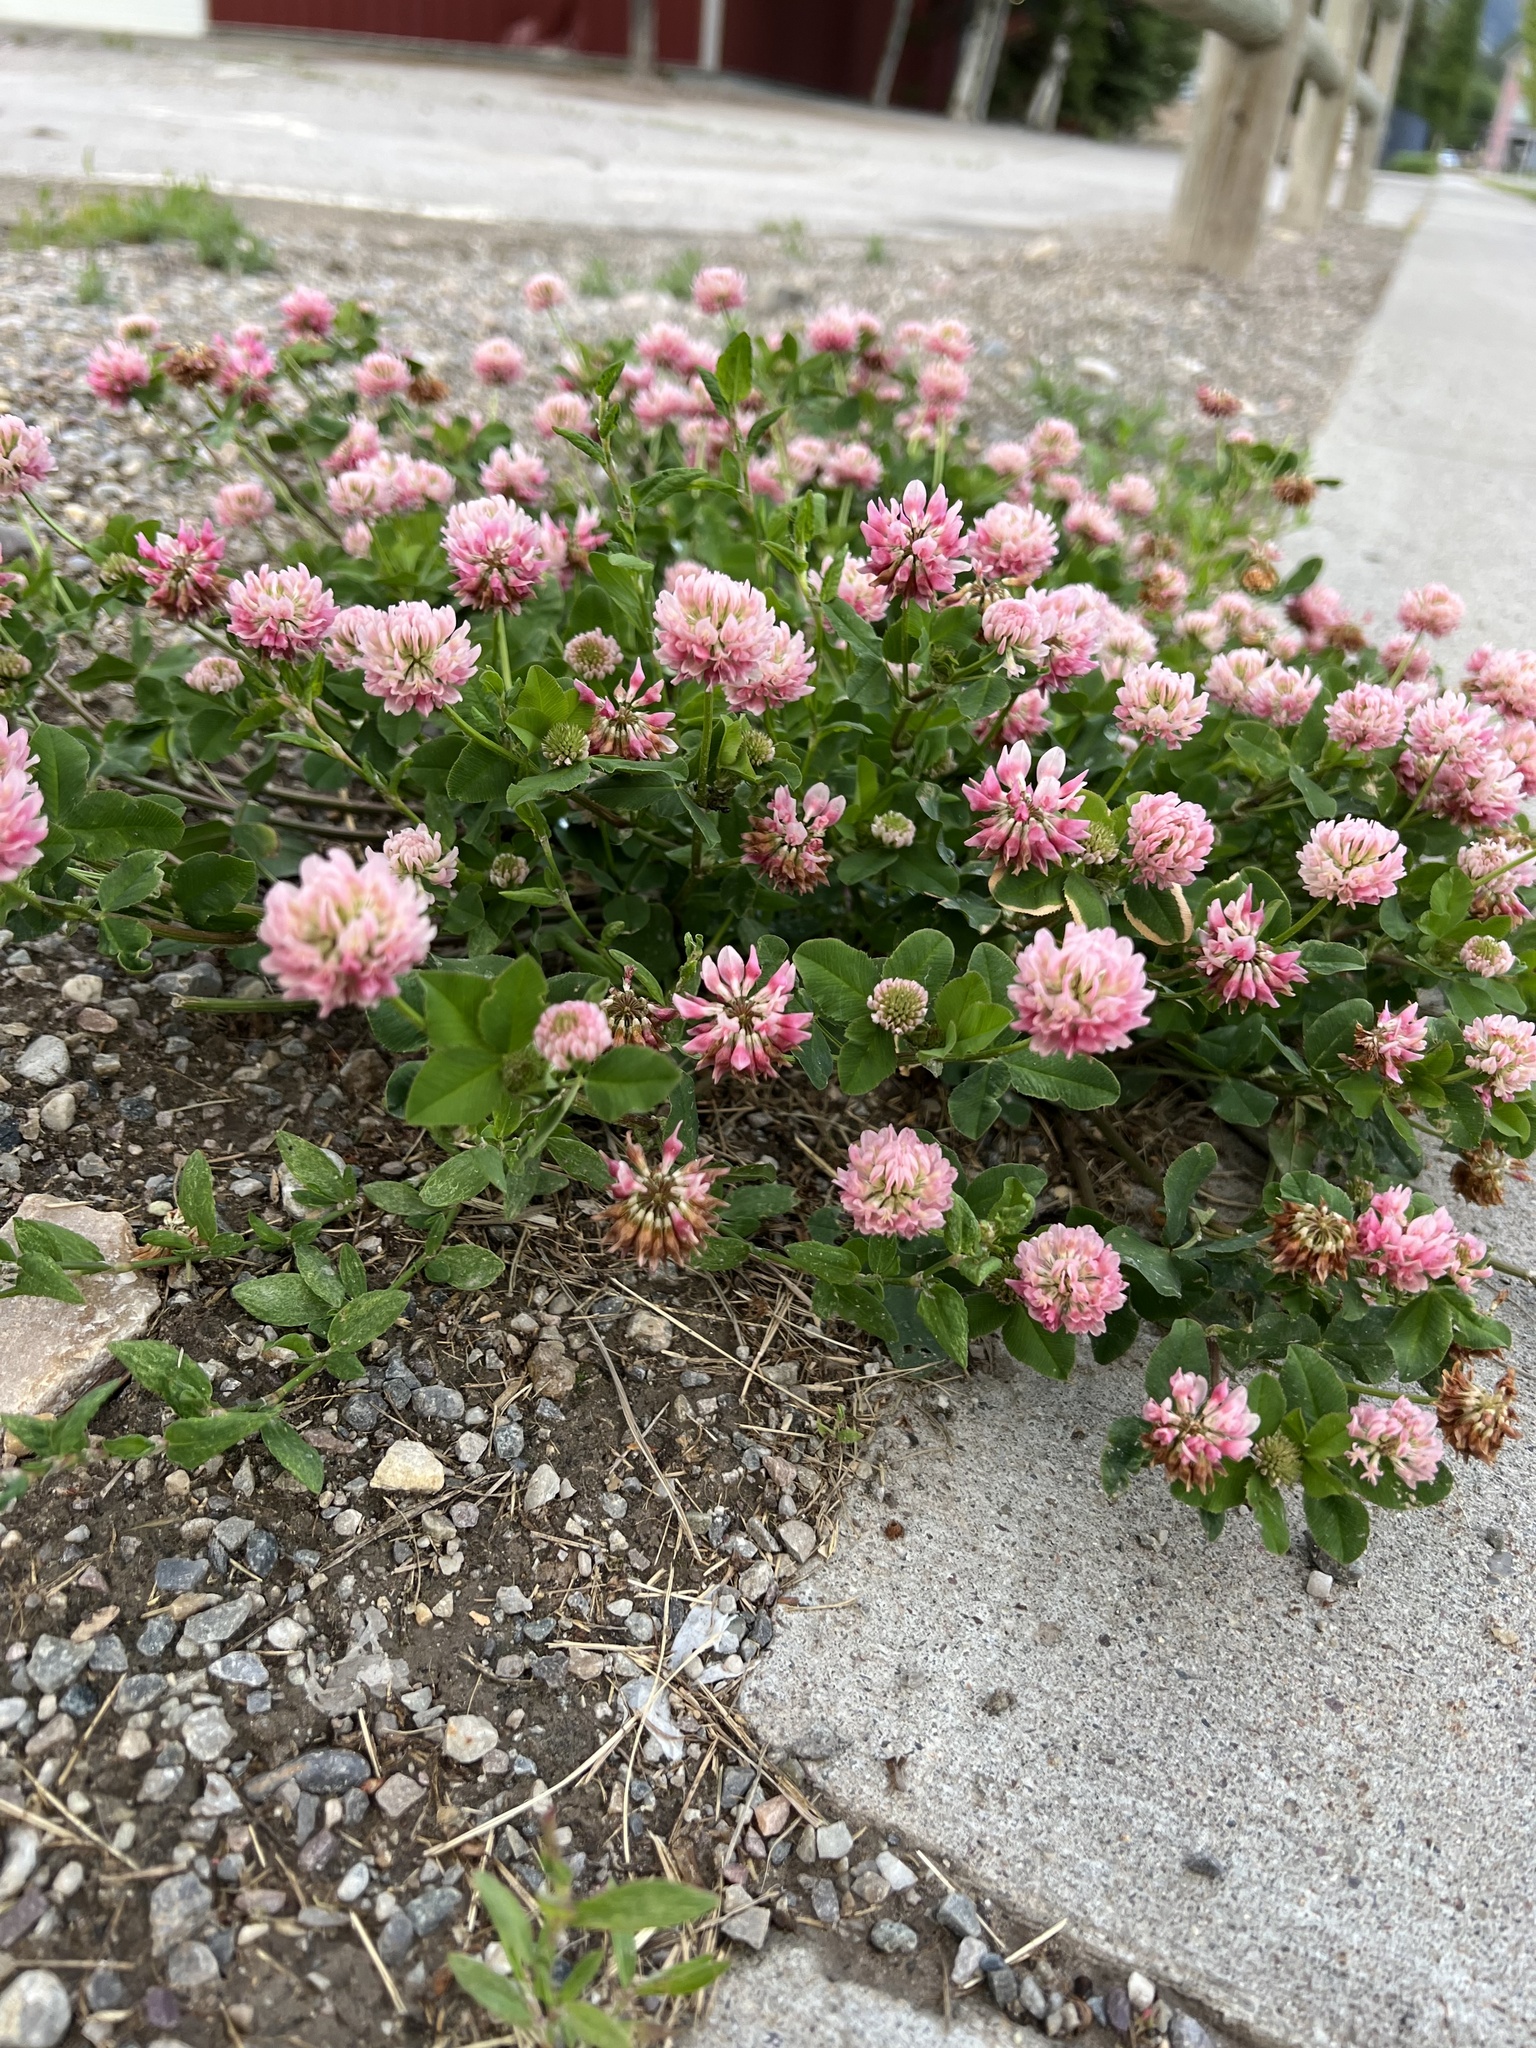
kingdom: Plantae
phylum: Tracheophyta
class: Magnoliopsida
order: Fabales
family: Fabaceae
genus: Trifolium
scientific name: Trifolium hybridum
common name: Alsike clover
